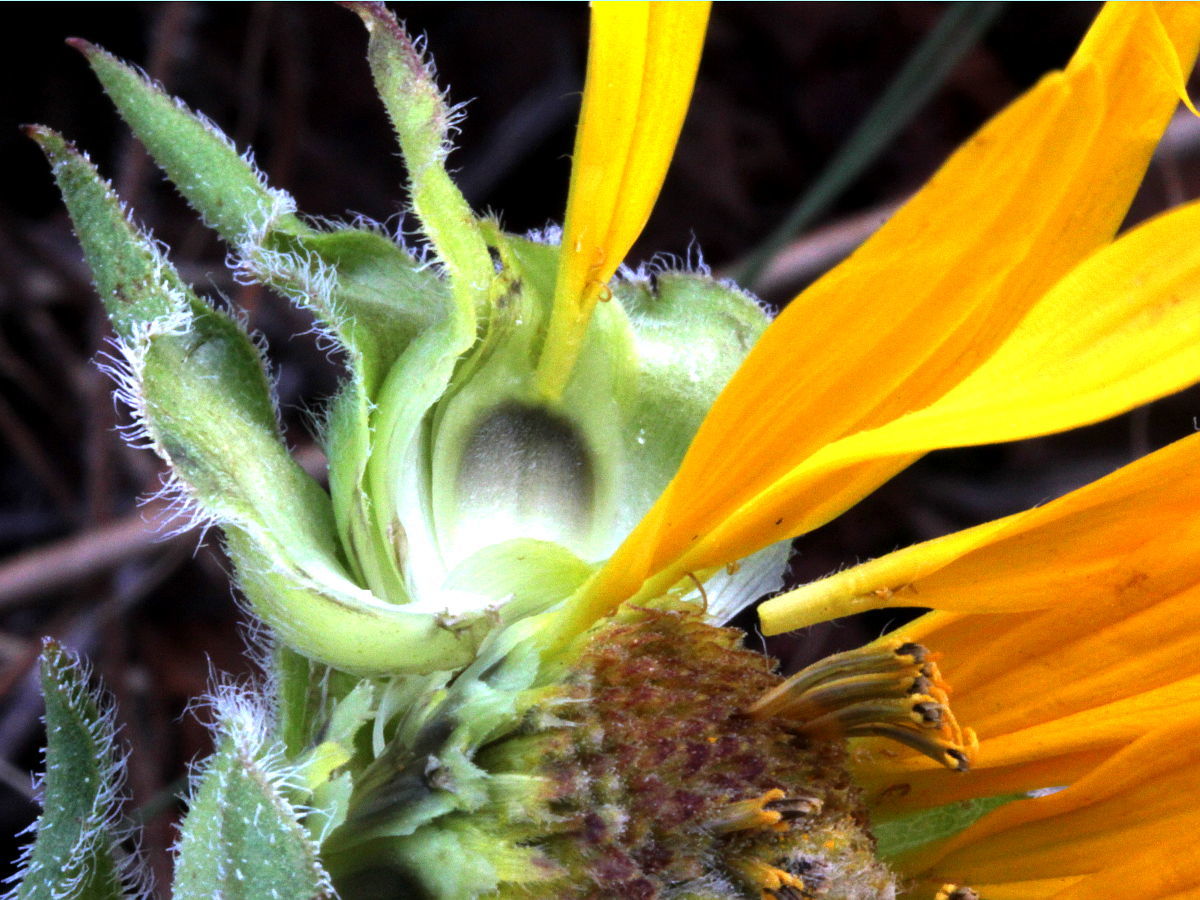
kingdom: Plantae
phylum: Tracheophyta
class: Magnoliopsida
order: Asterales
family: Asteraceae
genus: Silphium
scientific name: Silphium laciniatum
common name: Polarplant
